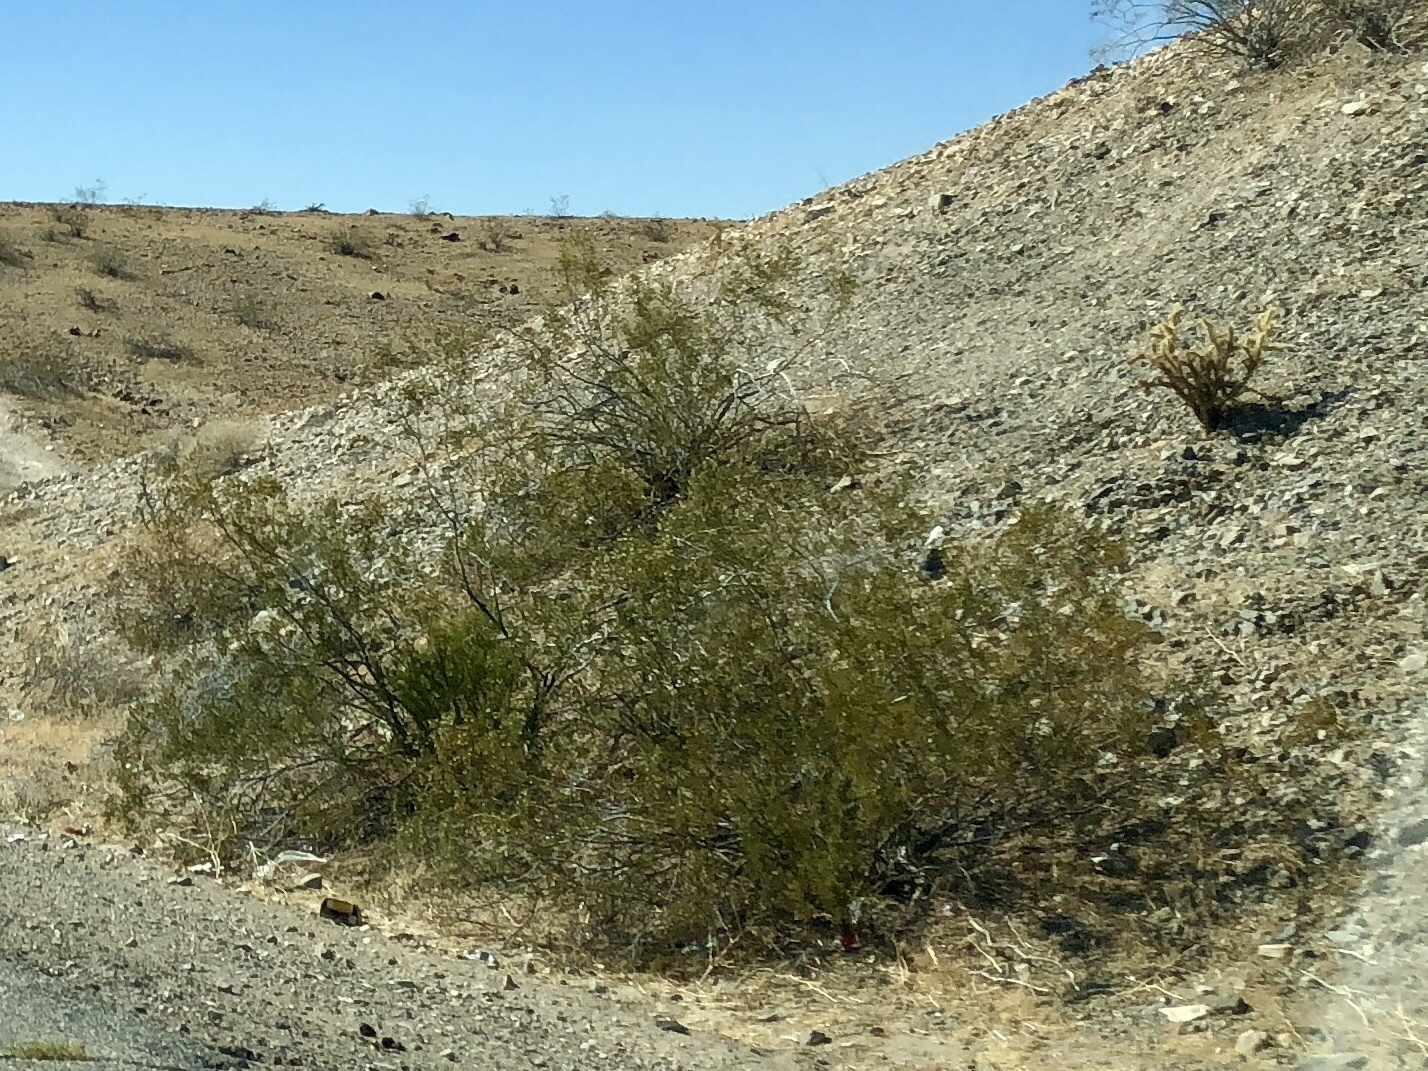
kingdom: Plantae
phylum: Tracheophyta
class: Magnoliopsida
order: Zygophyllales
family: Zygophyllaceae
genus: Larrea
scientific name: Larrea tridentata
